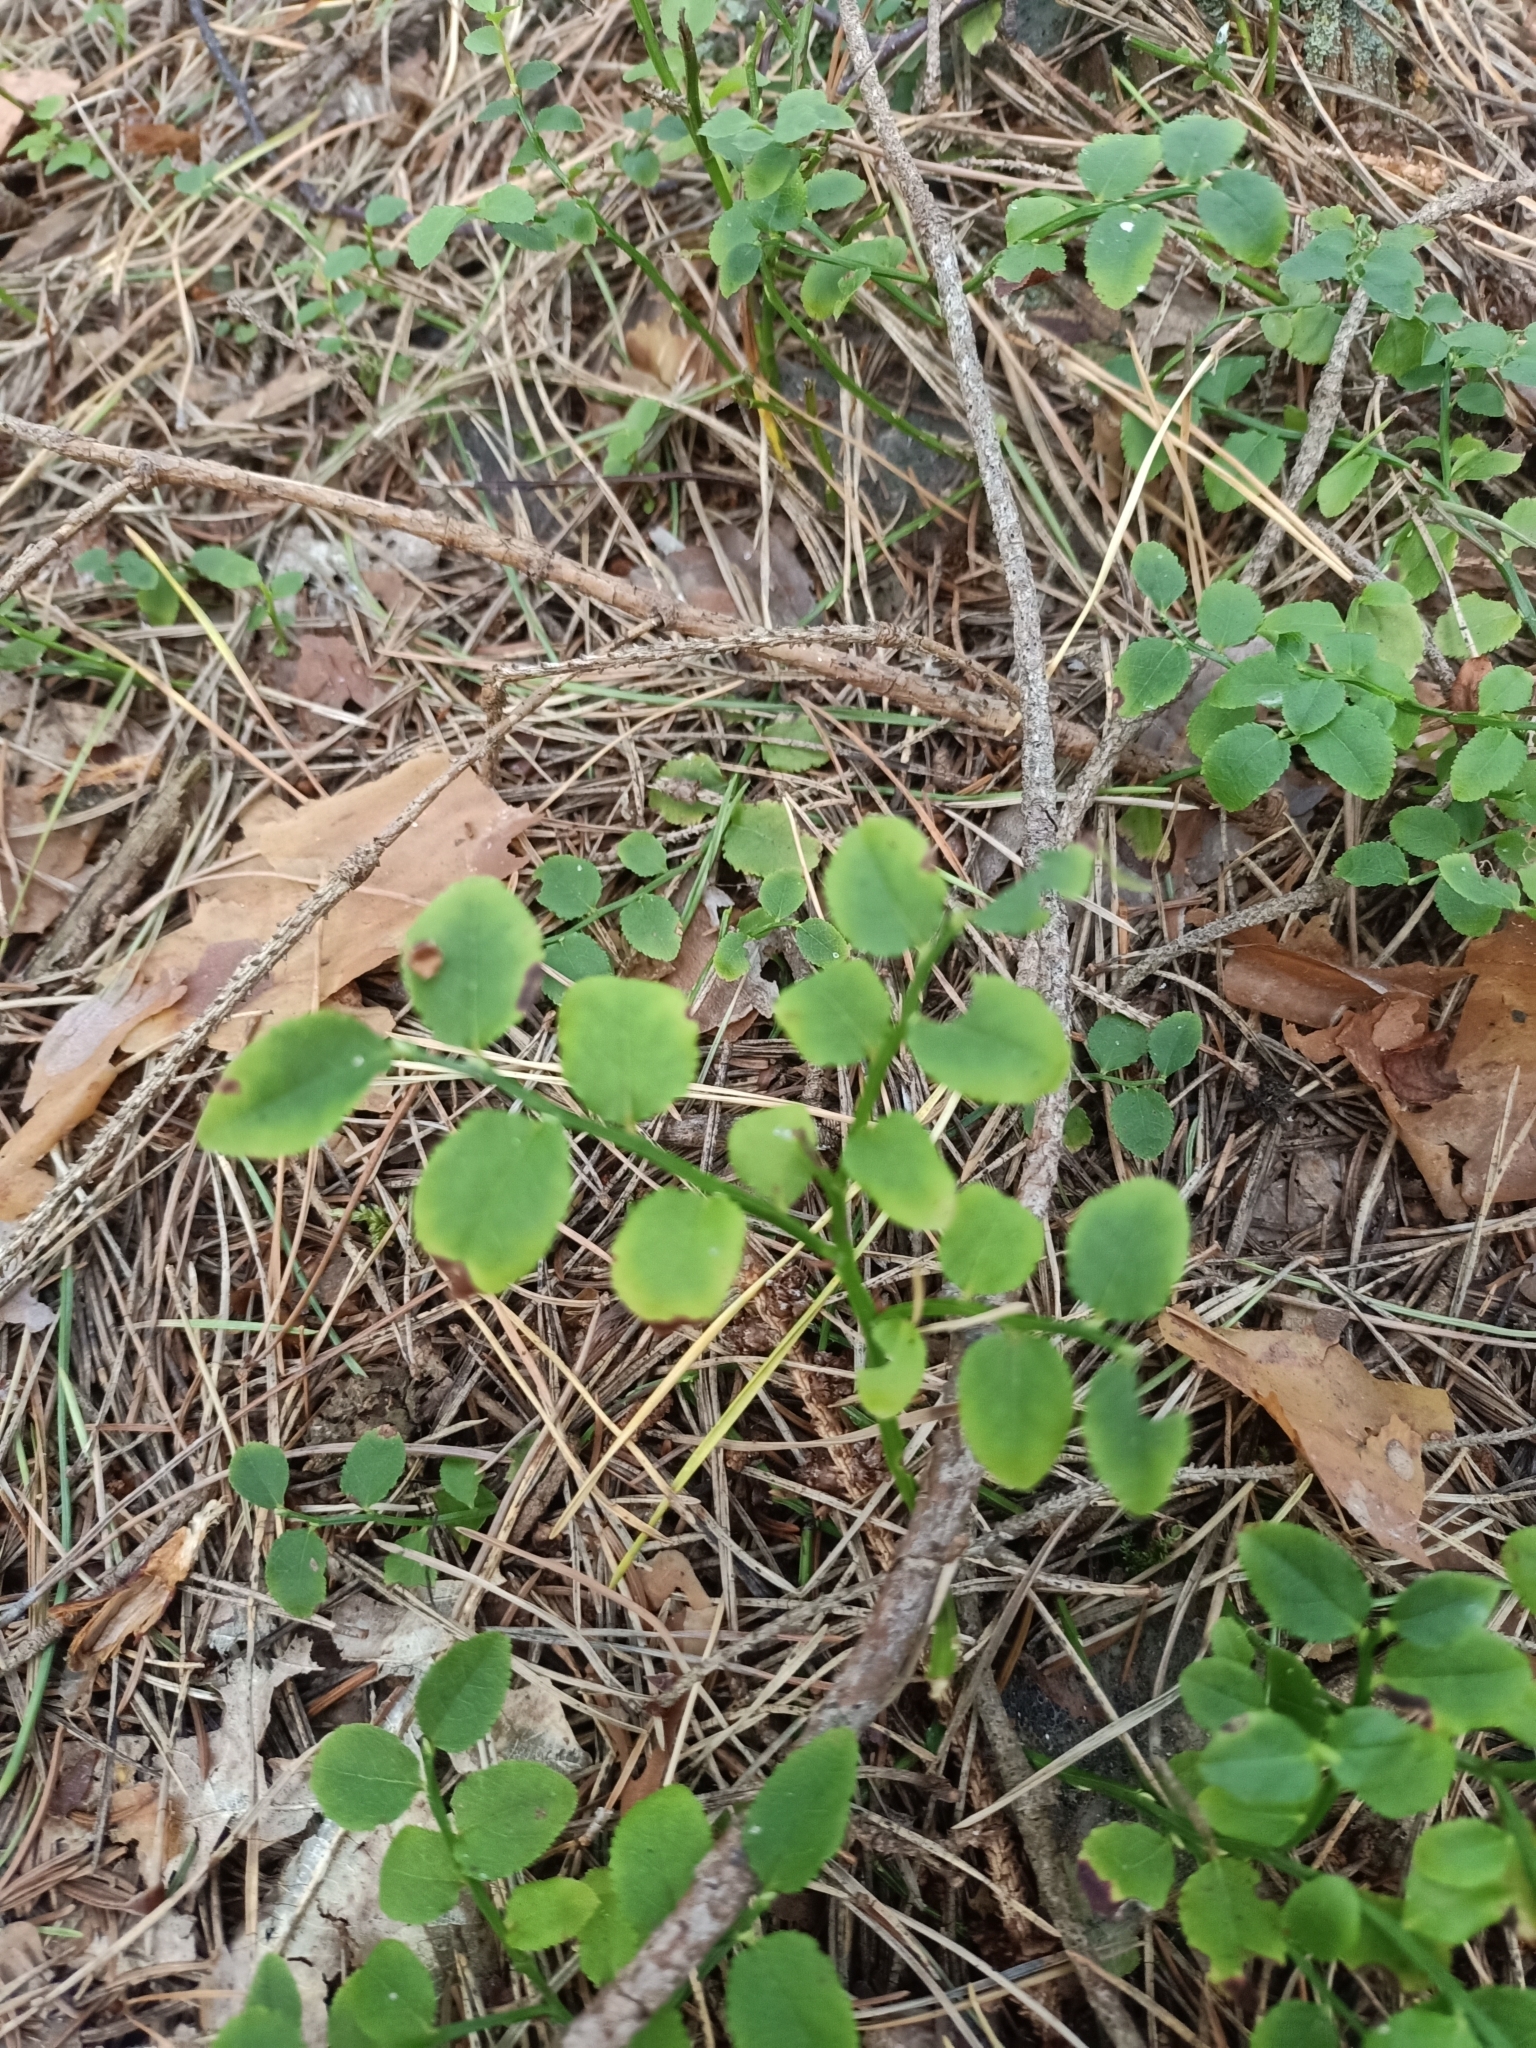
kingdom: Plantae
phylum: Tracheophyta
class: Magnoliopsida
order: Ericales
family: Ericaceae
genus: Vaccinium
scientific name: Vaccinium myrtillus
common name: Bilberry
